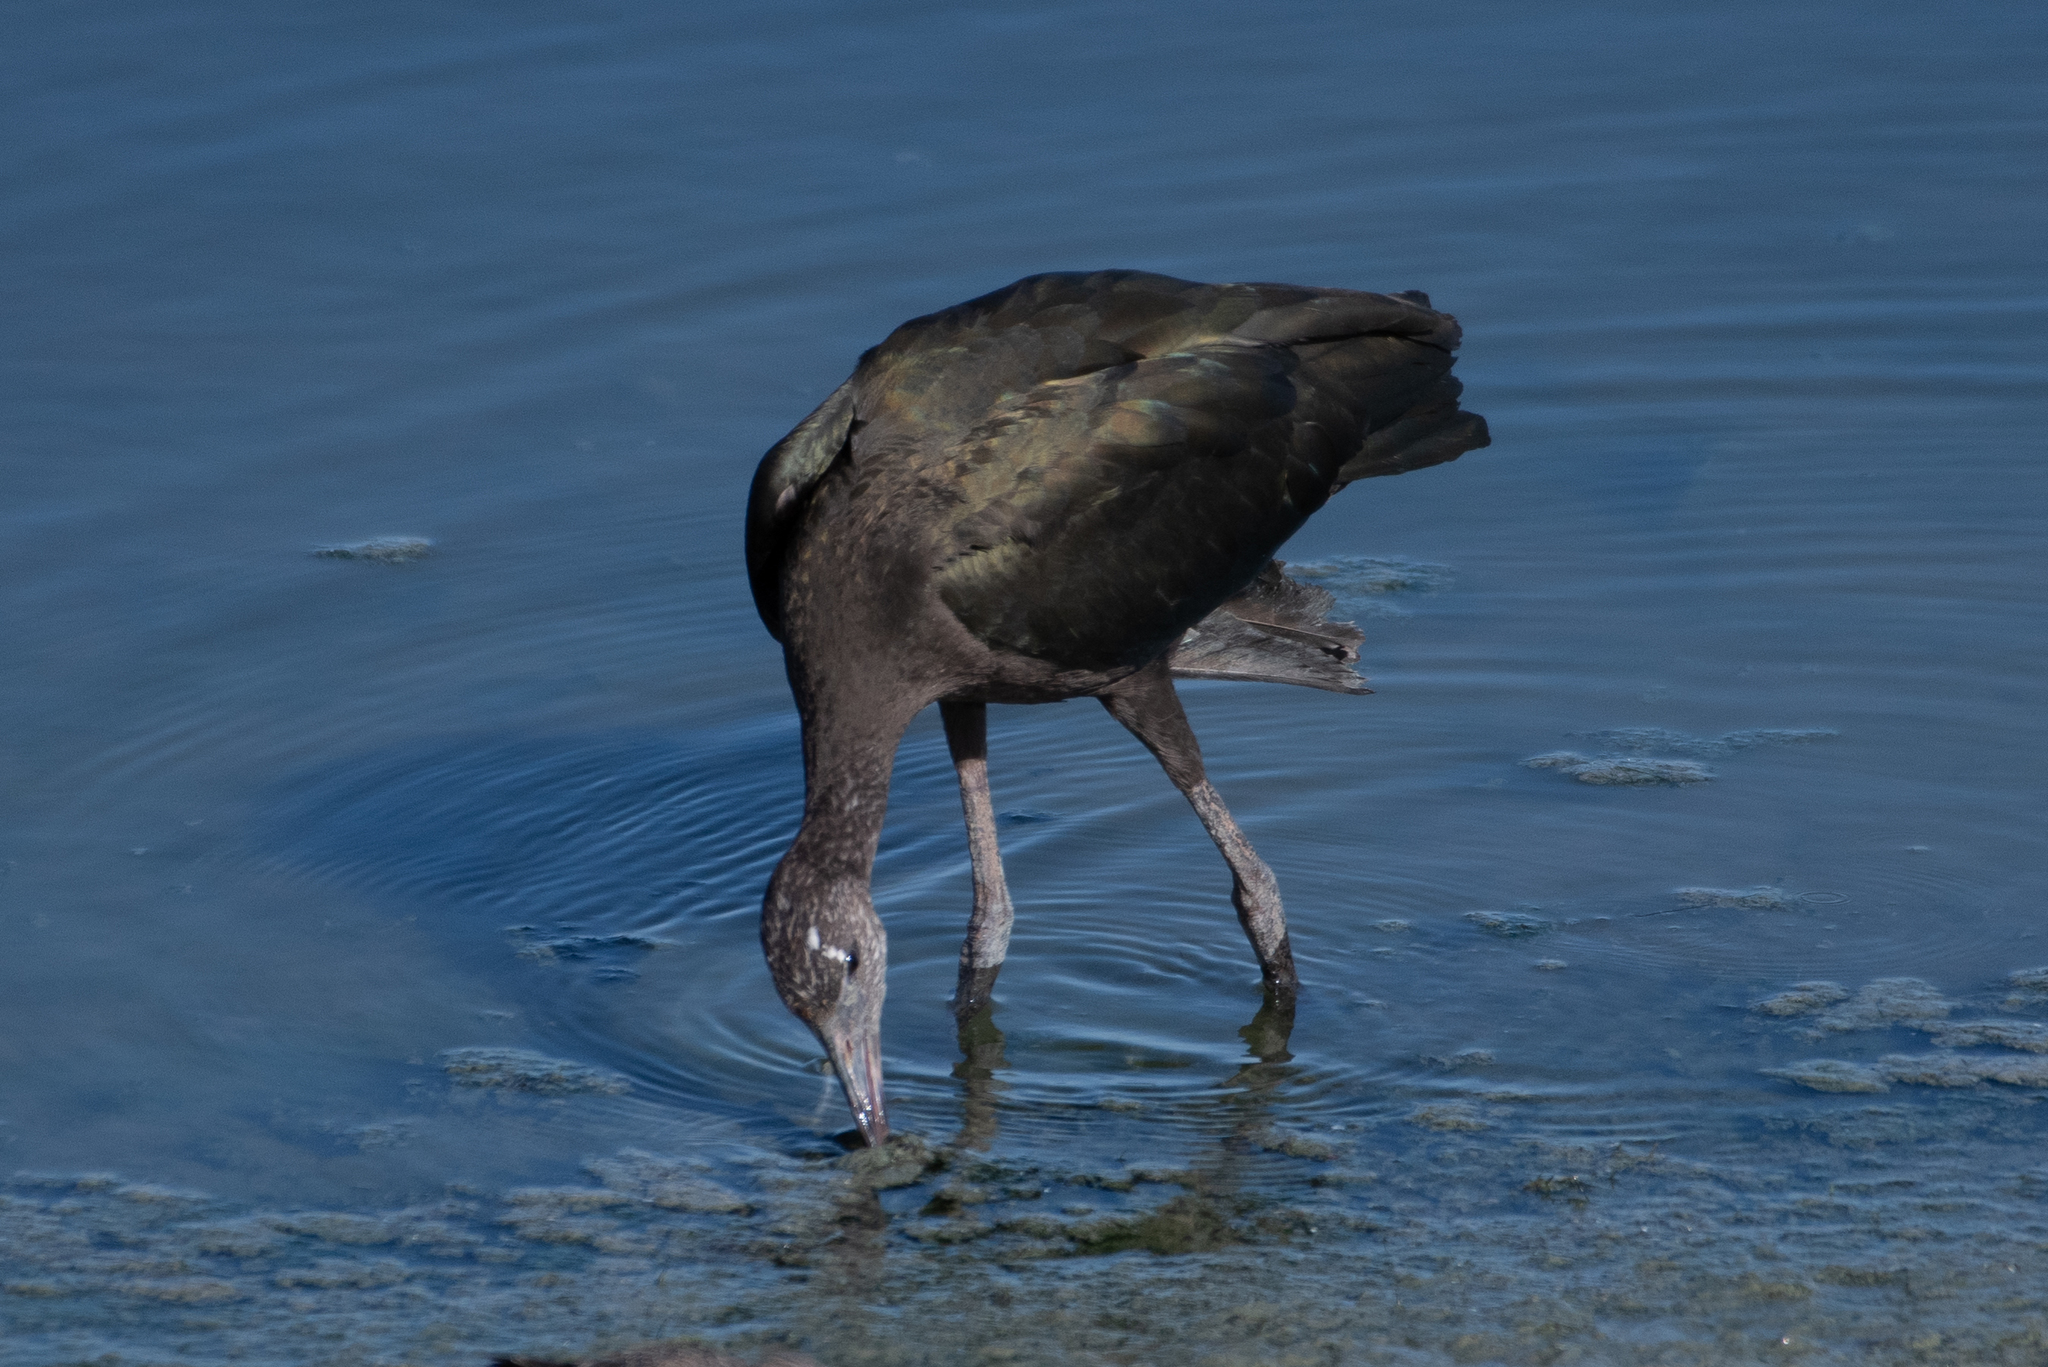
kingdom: Animalia
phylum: Chordata
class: Aves
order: Pelecaniformes
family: Threskiornithidae
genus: Plegadis
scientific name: Plegadis chihi
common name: White-faced ibis
